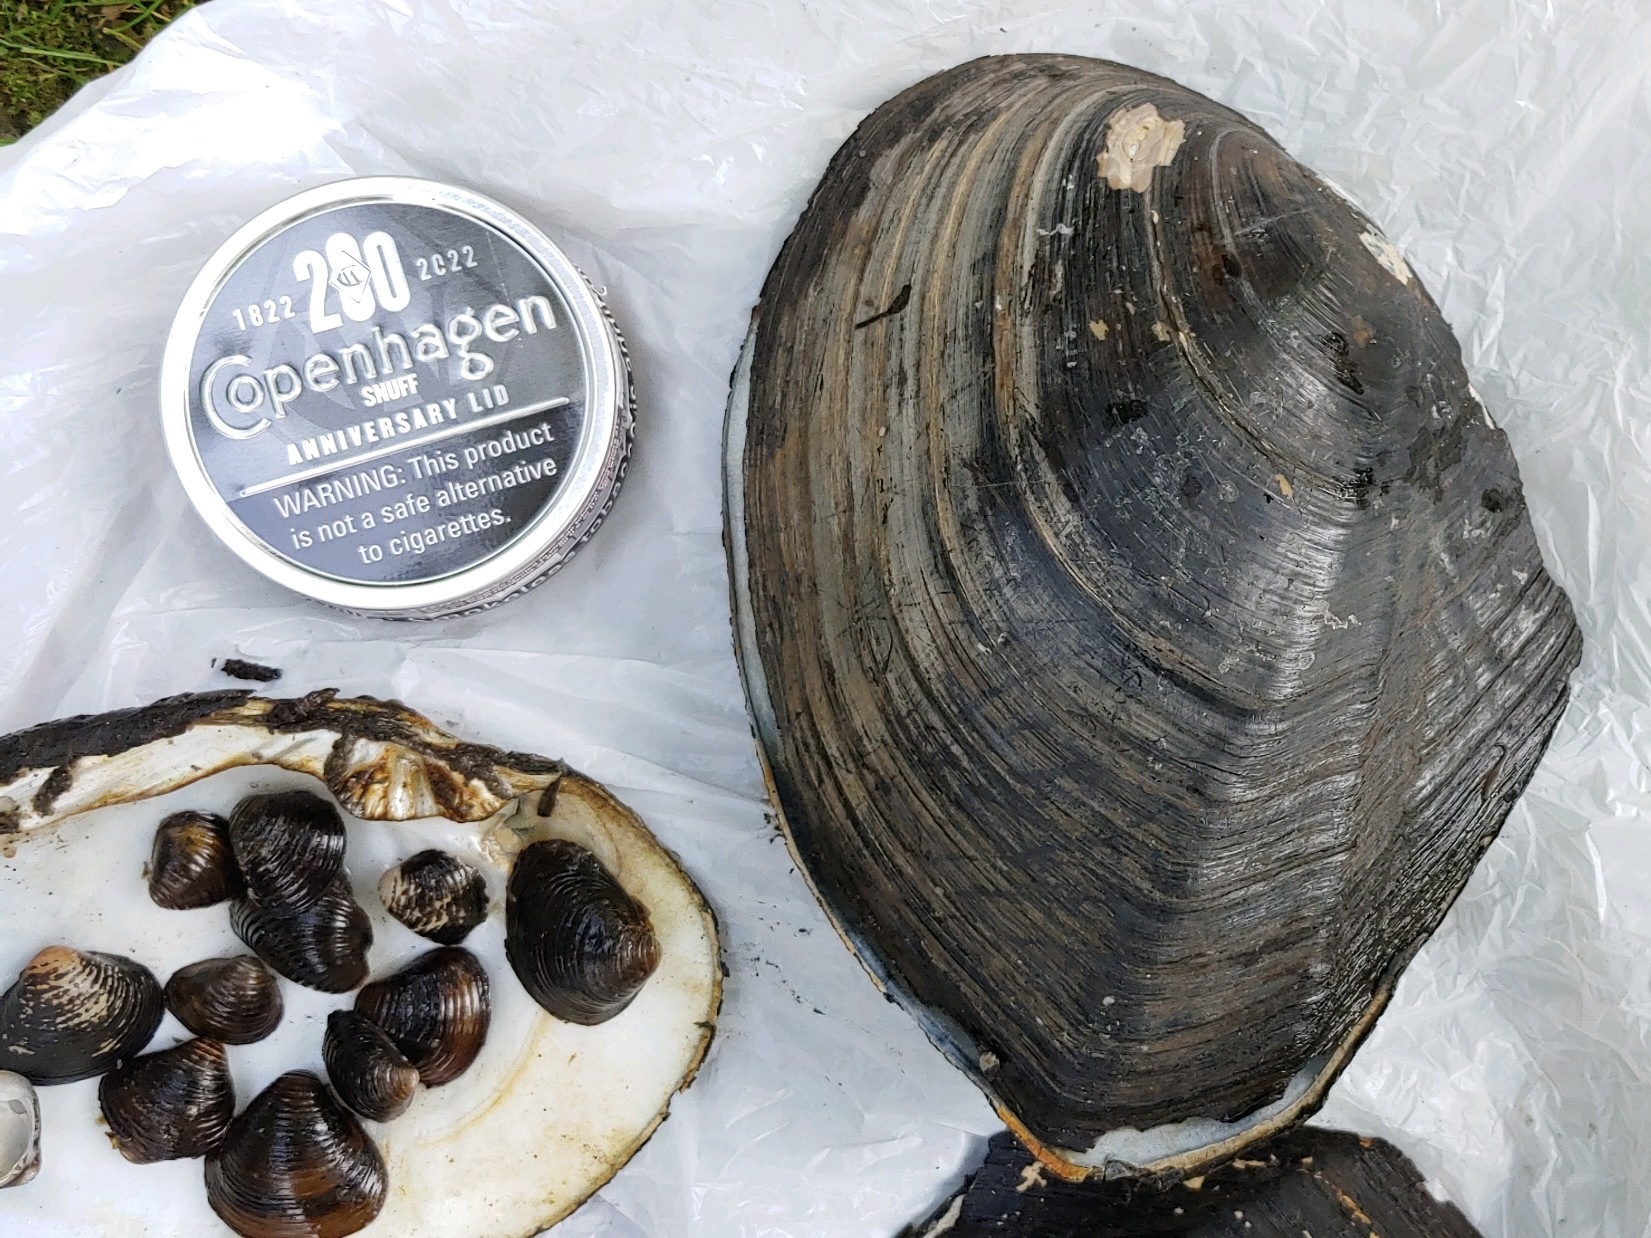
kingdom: Animalia
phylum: Mollusca
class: Bivalvia
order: Unionida
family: Unionidae
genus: Lasmigona
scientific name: Lasmigona complanata
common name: White heelsplitter
